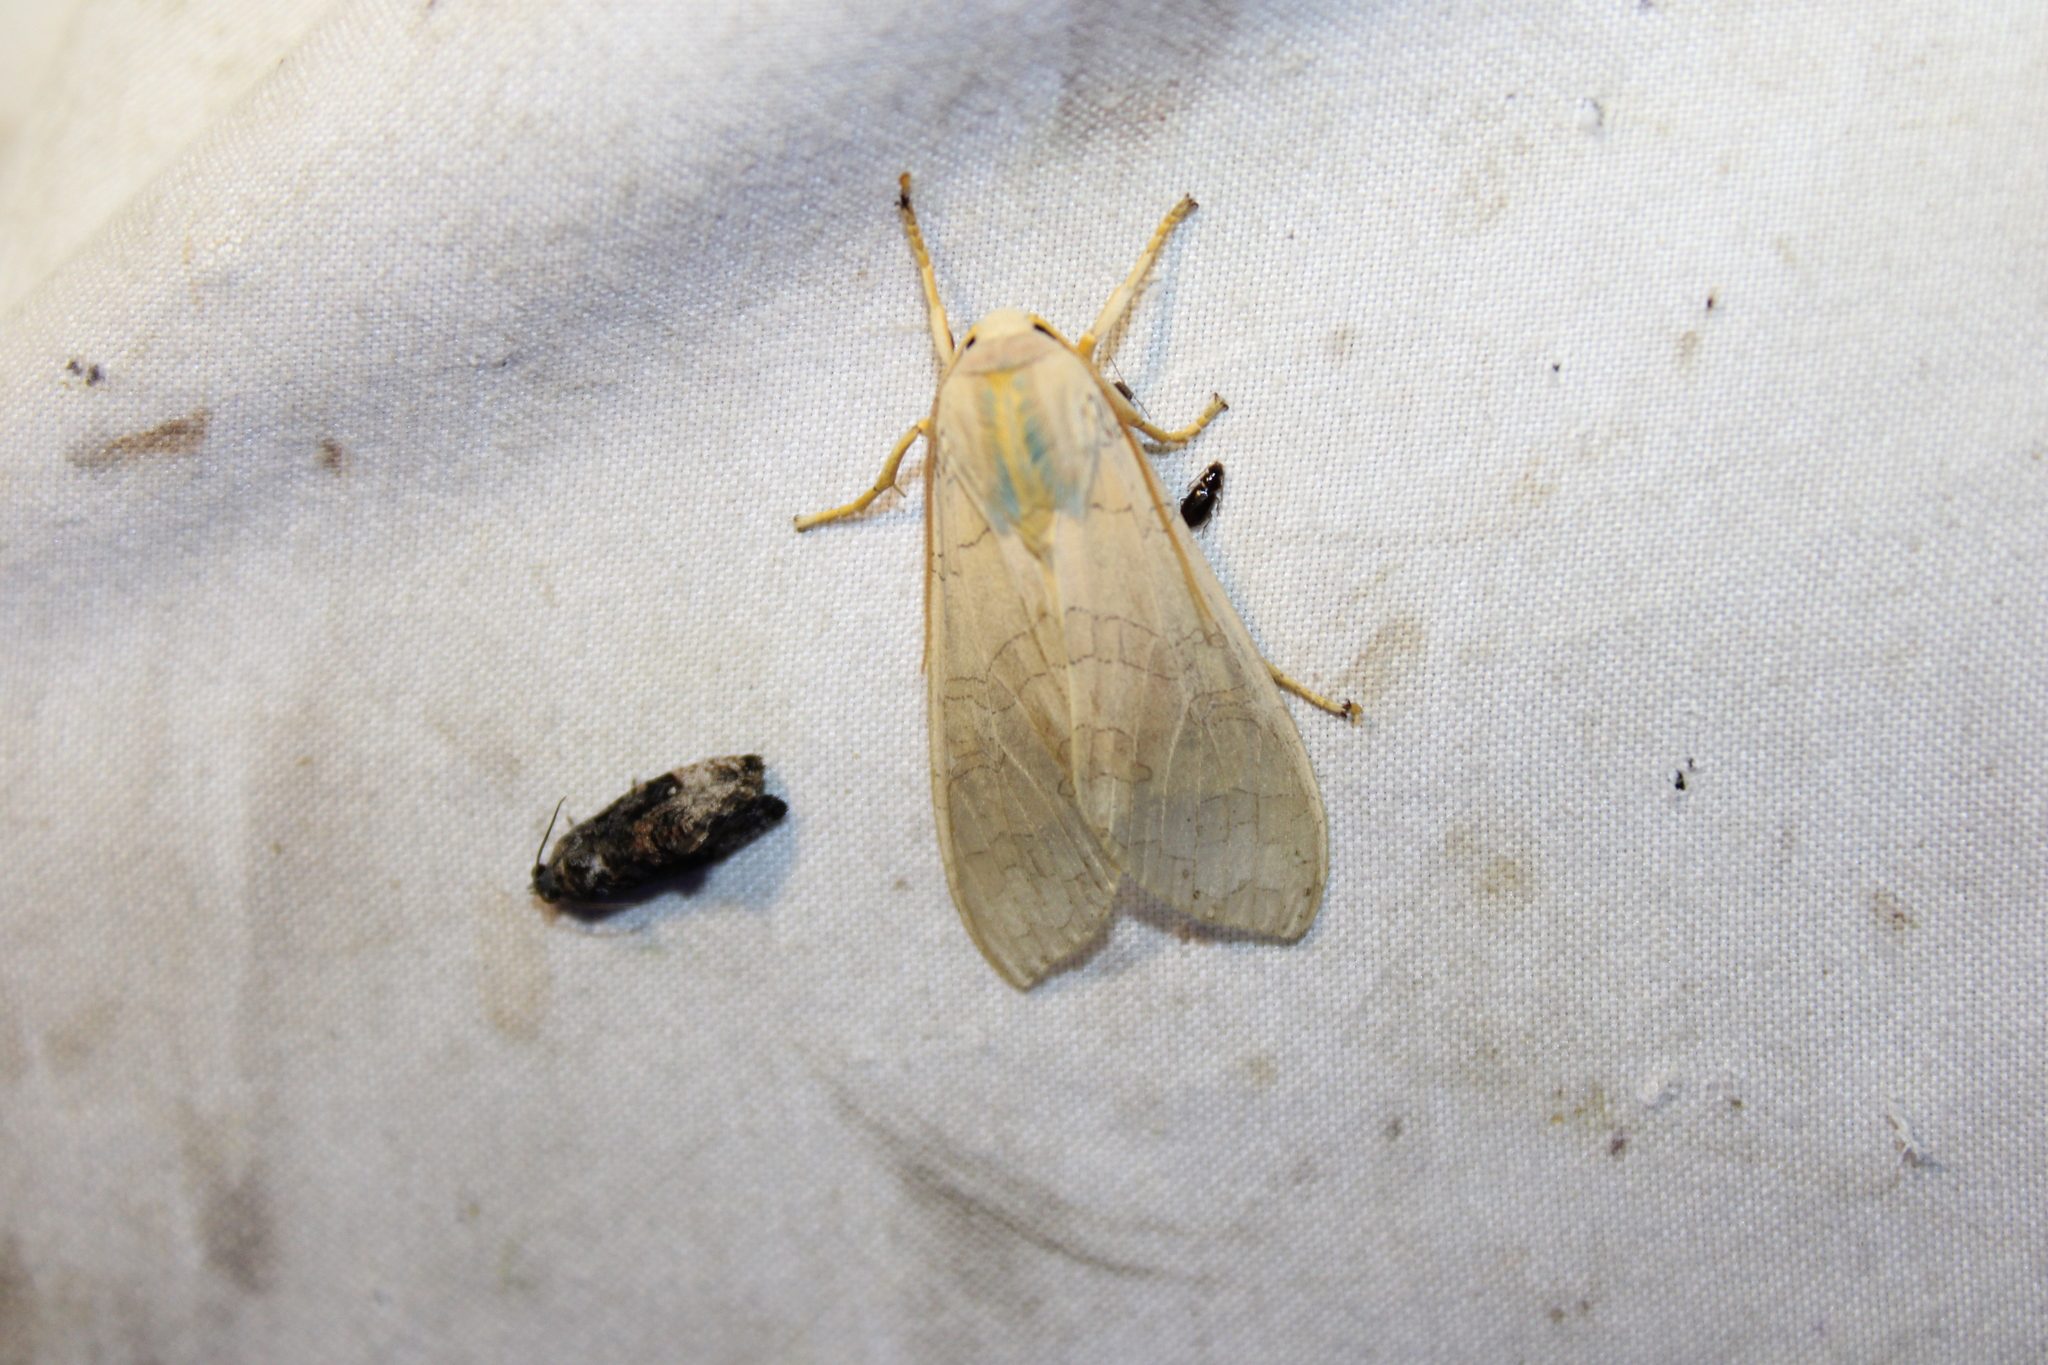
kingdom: Animalia
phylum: Arthropoda
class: Insecta
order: Lepidoptera
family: Erebidae
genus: Halysidota
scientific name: Halysidota
